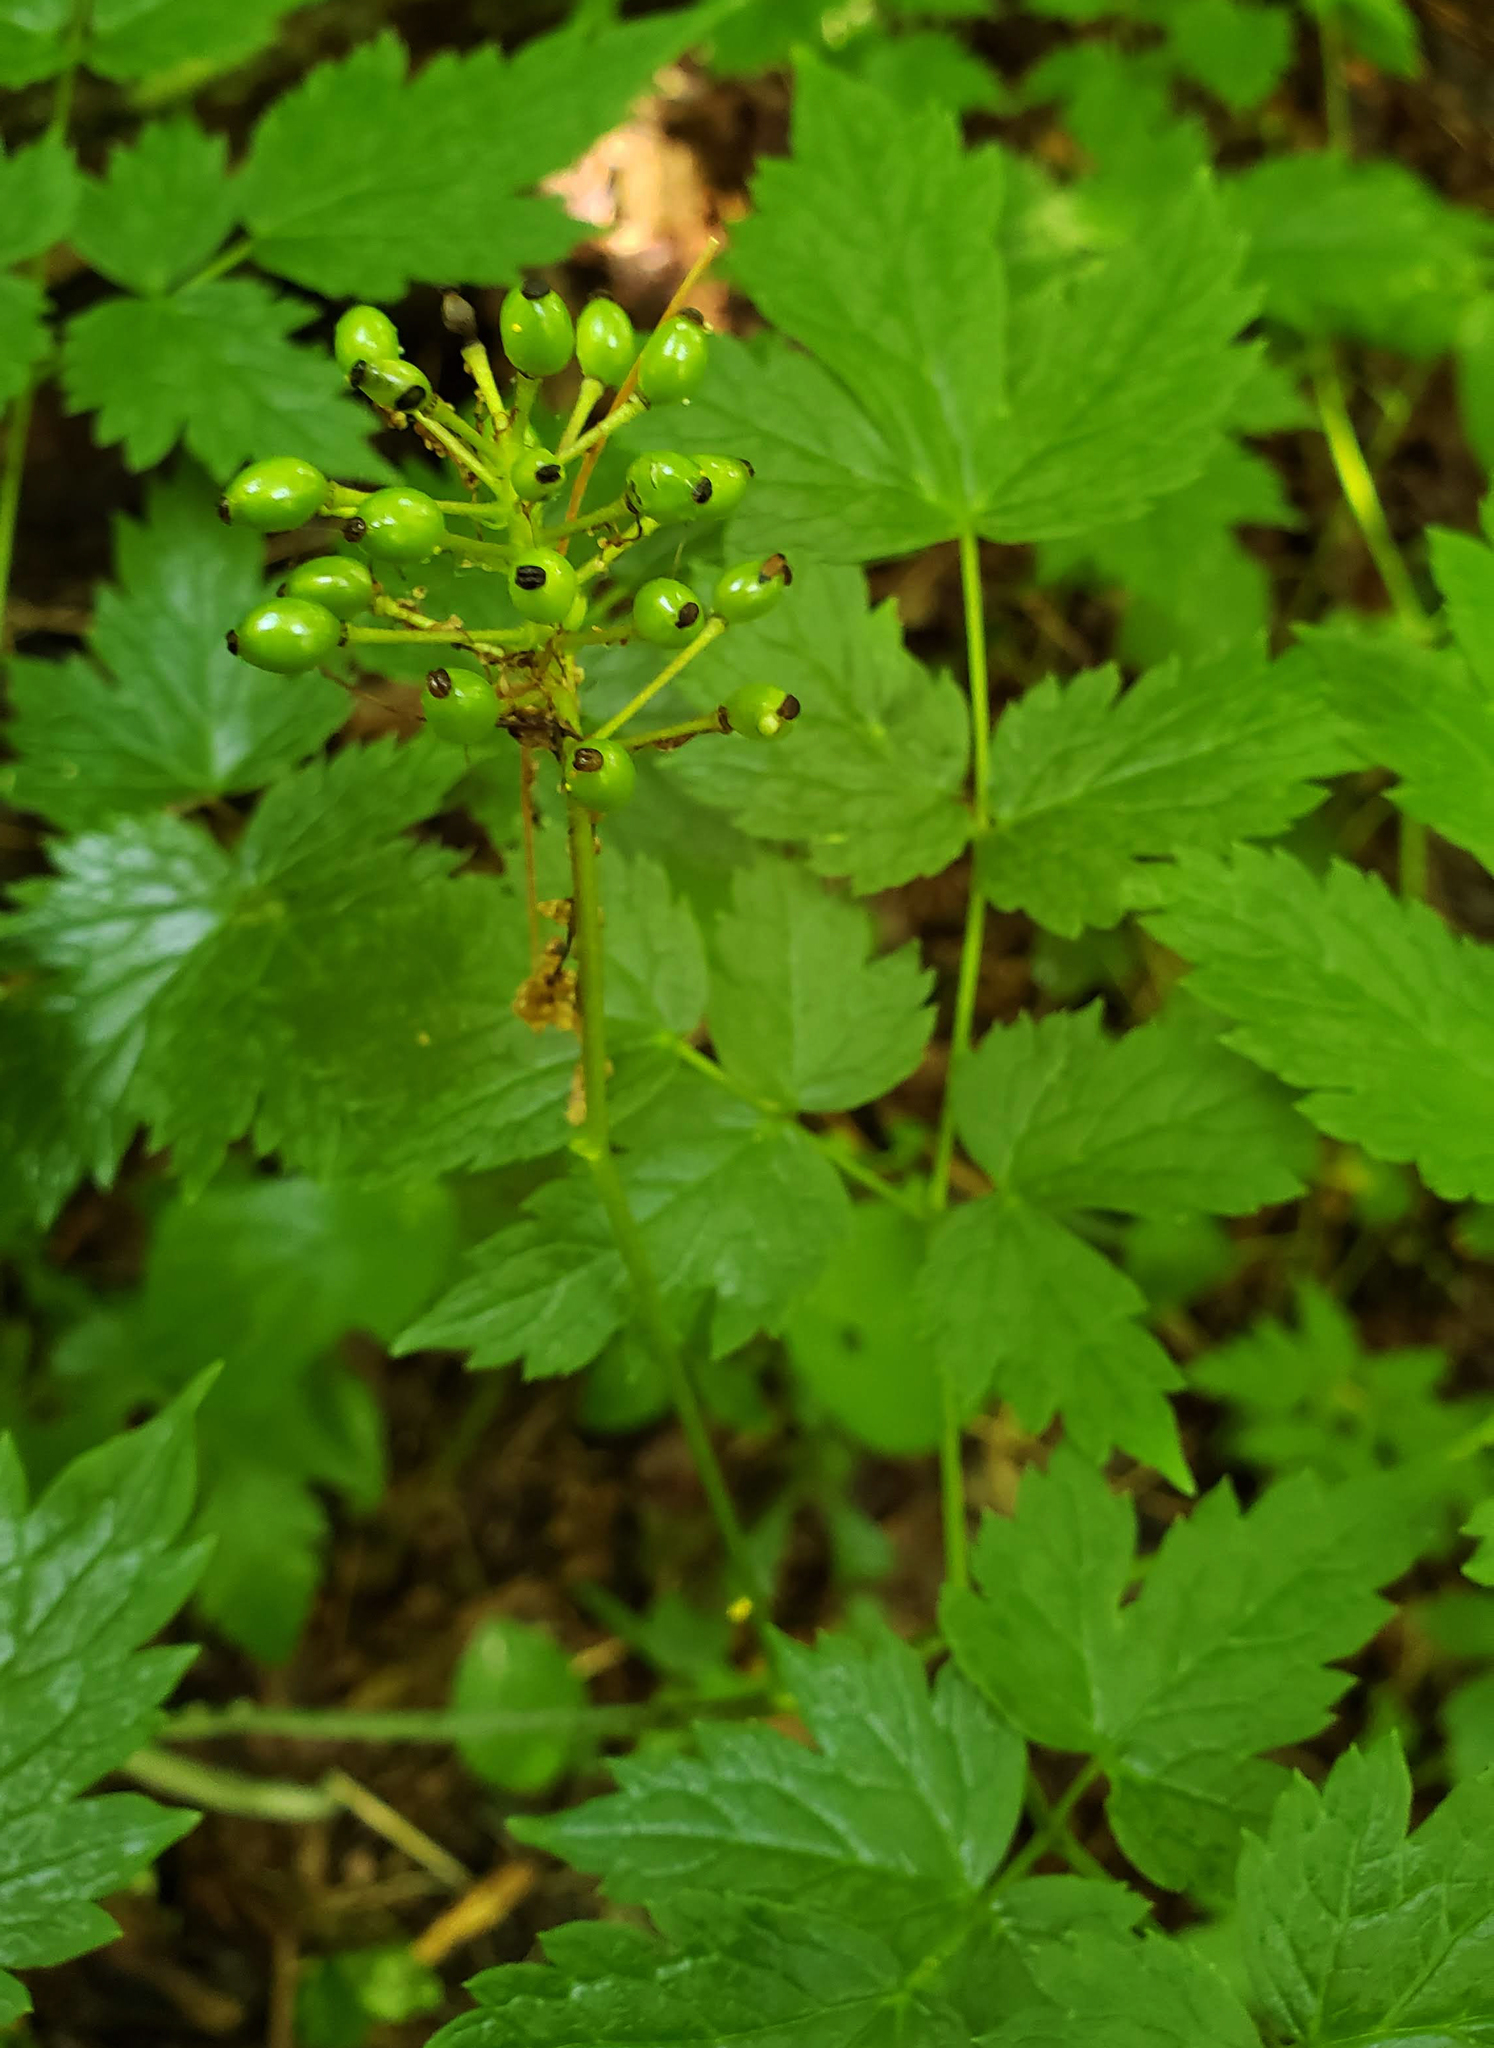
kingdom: Plantae
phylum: Tracheophyta
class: Magnoliopsida
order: Ranunculales
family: Ranunculaceae
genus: Actaea
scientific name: Actaea rubra
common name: Red baneberry
